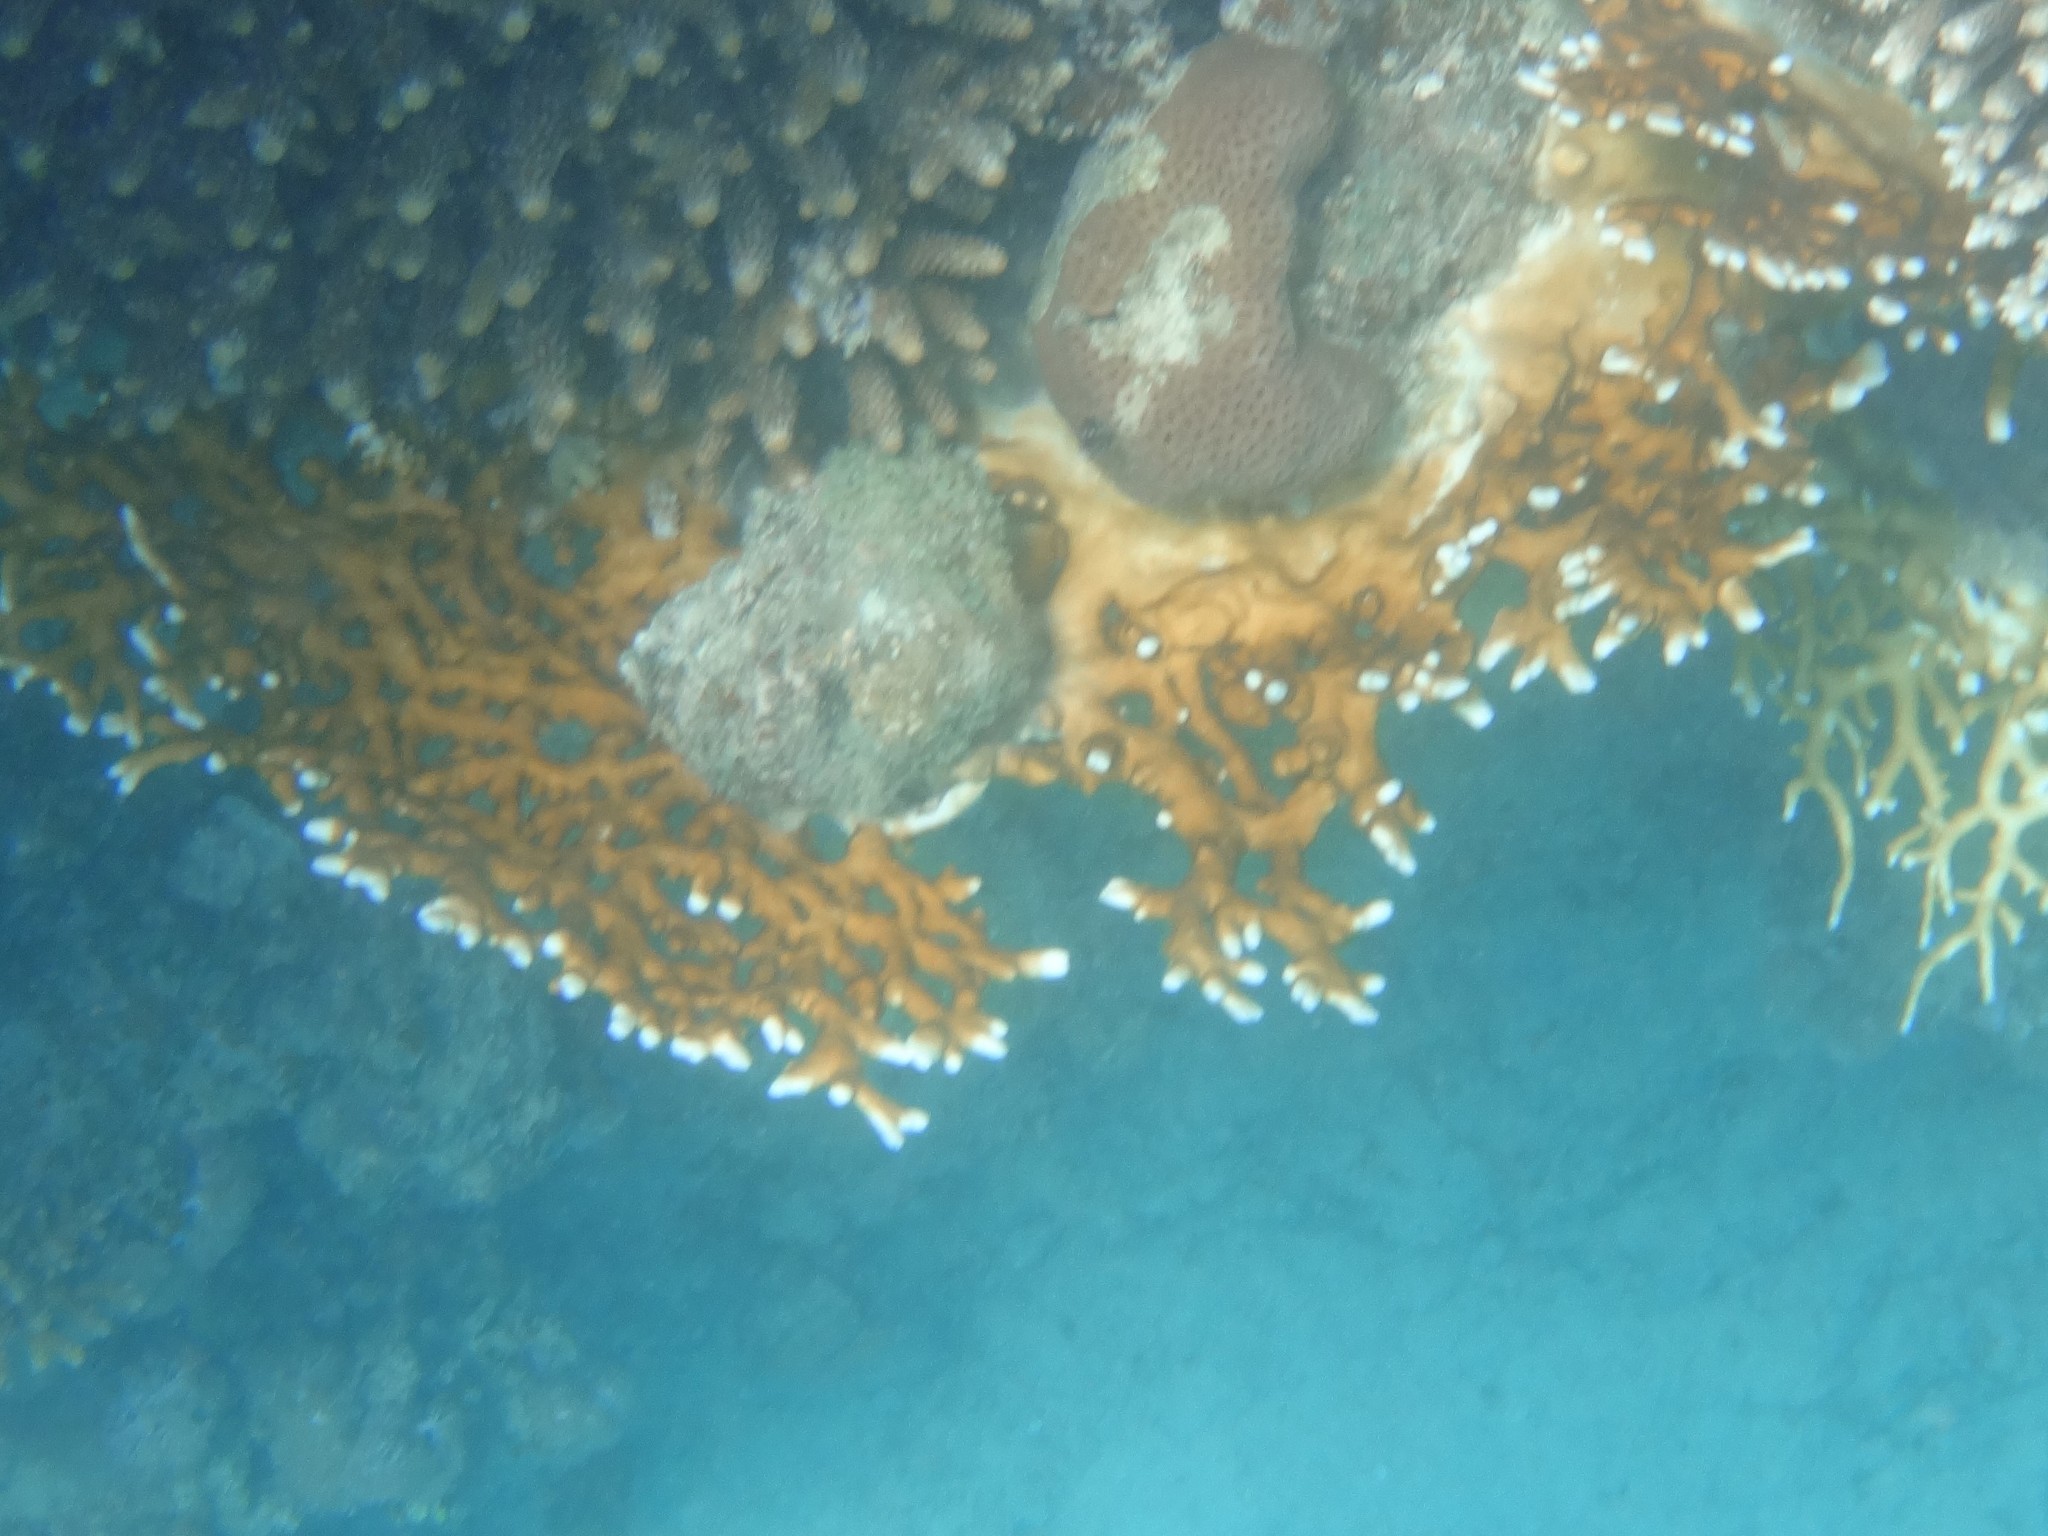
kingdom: Animalia
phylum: Cnidaria
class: Hydrozoa
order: Anthoathecata
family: Milleporidae
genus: Millepora
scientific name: Millepora dichotoma
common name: Ramified fire coral
